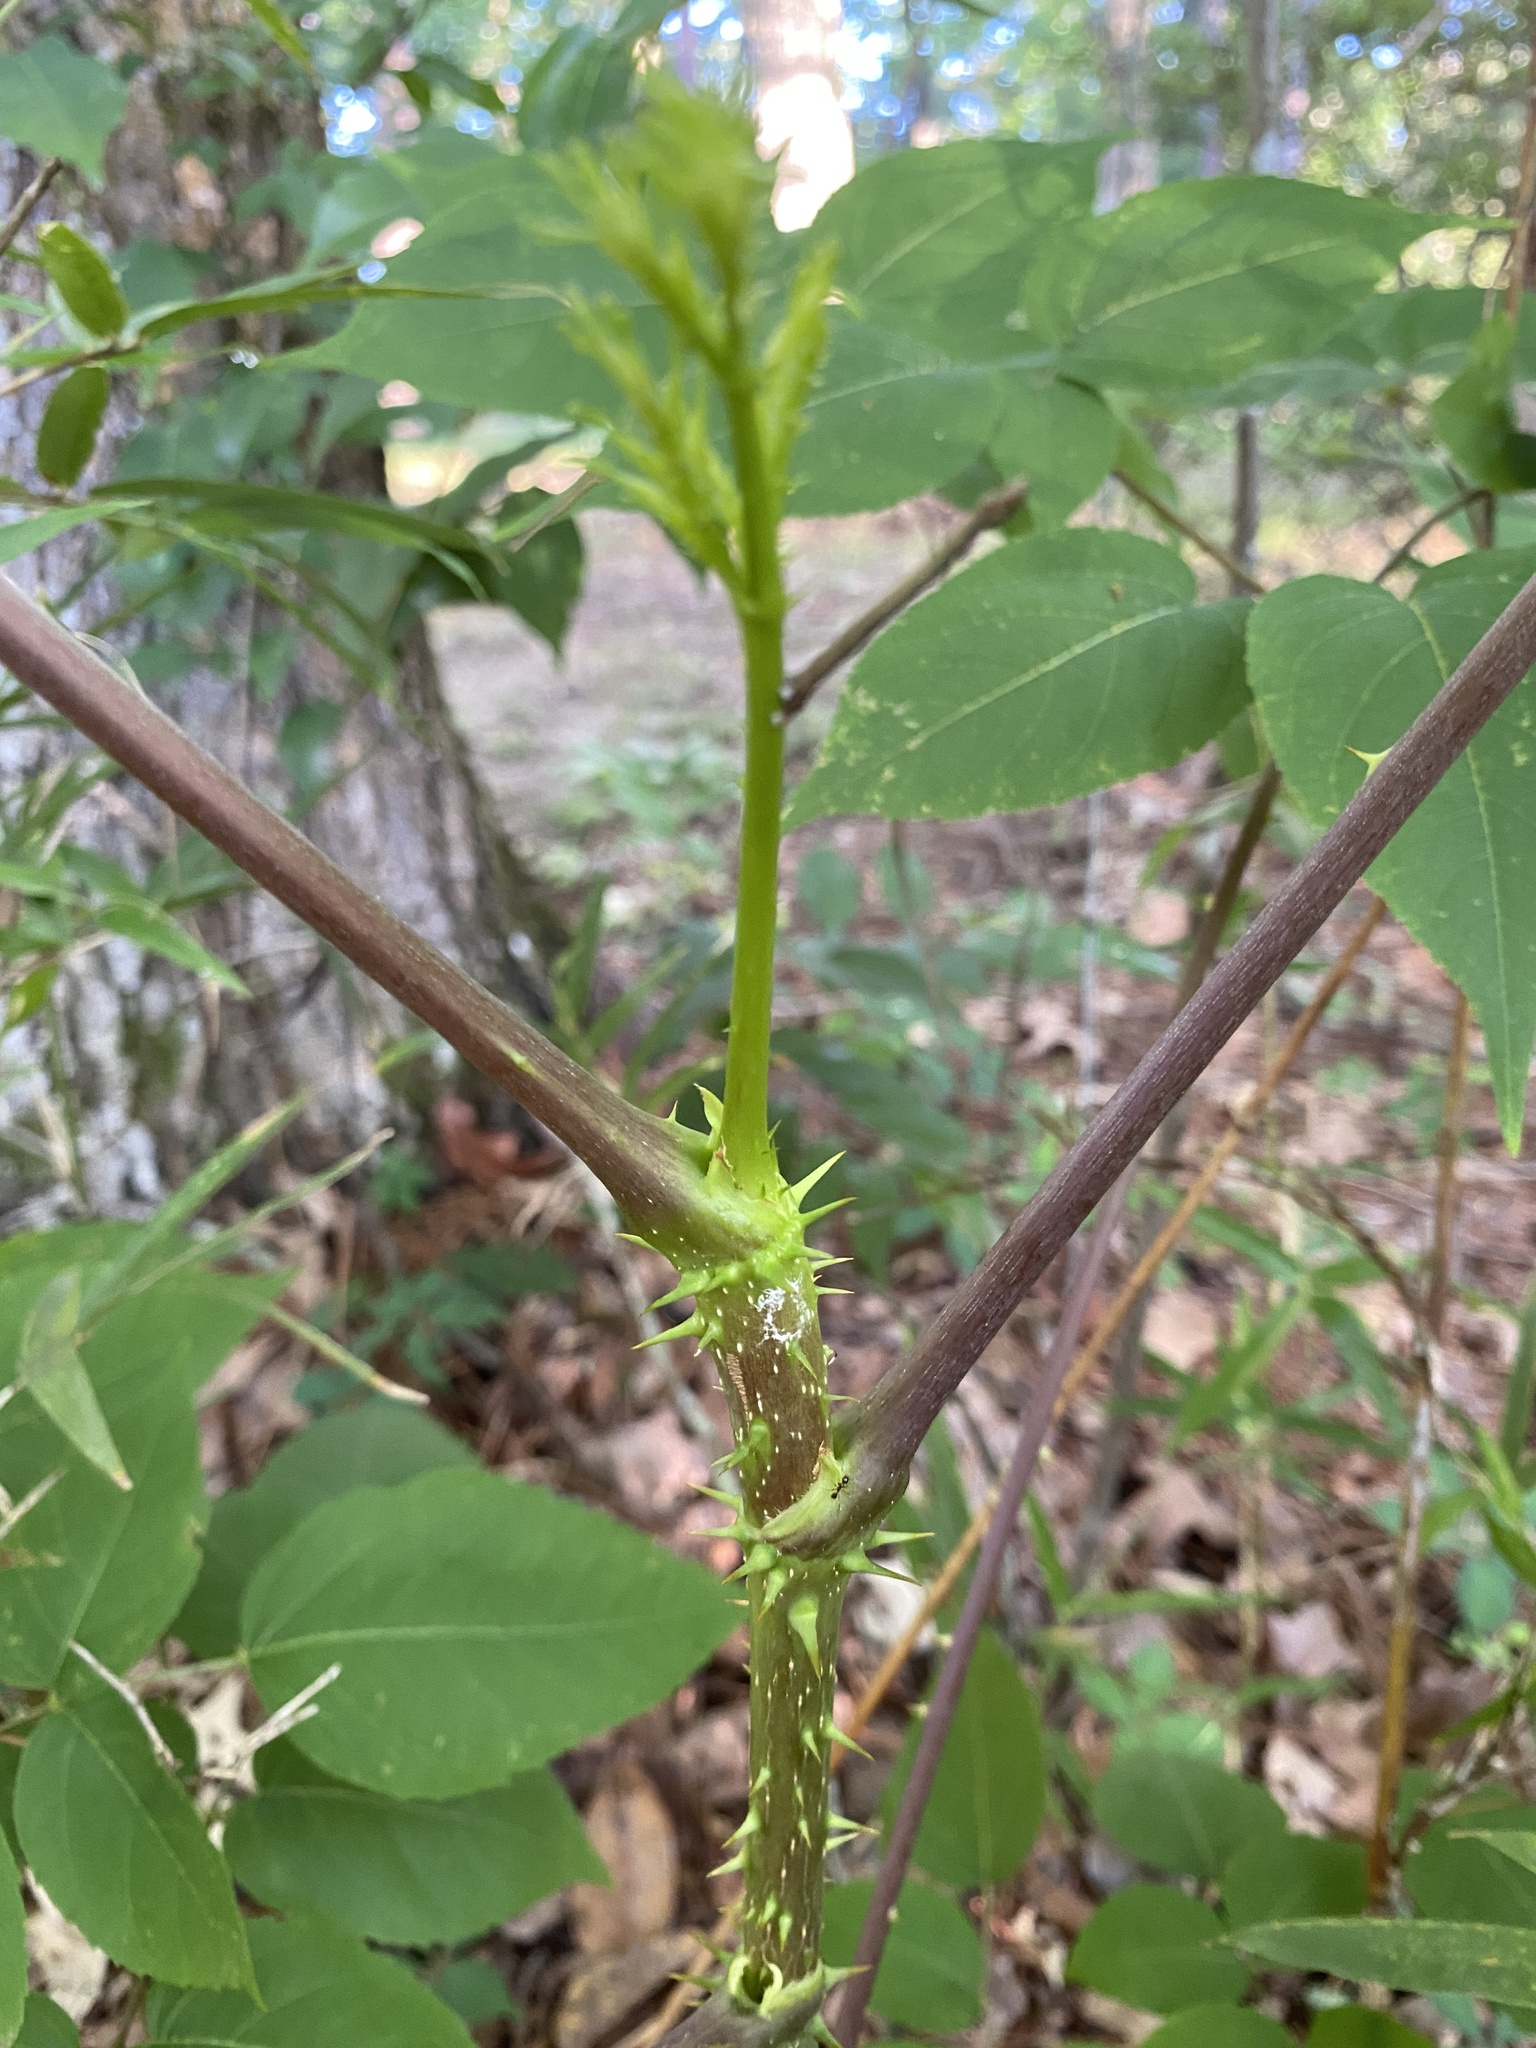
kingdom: Plantae
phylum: Tracheophyta
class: Magnoliopsida
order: Apiales
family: Araliaceae
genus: Aralia
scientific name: Aralia spinosa
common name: Hercules'-club
